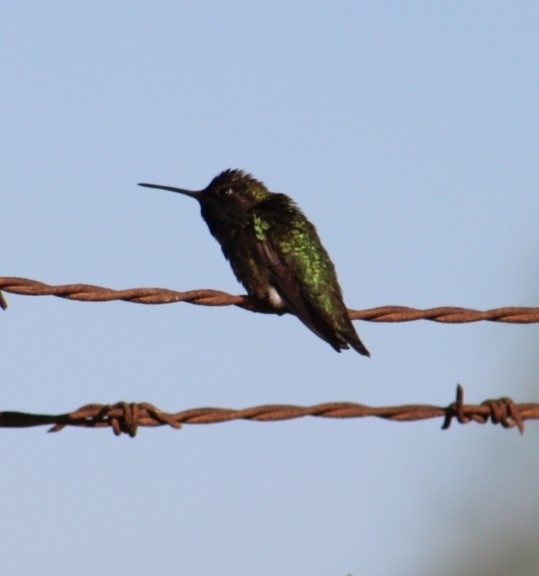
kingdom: Animalia
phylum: Chordata
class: Aves
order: Apodiformes
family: Trochilidae
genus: Calypte
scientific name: Calypte anna
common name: Anna's hummingbird
